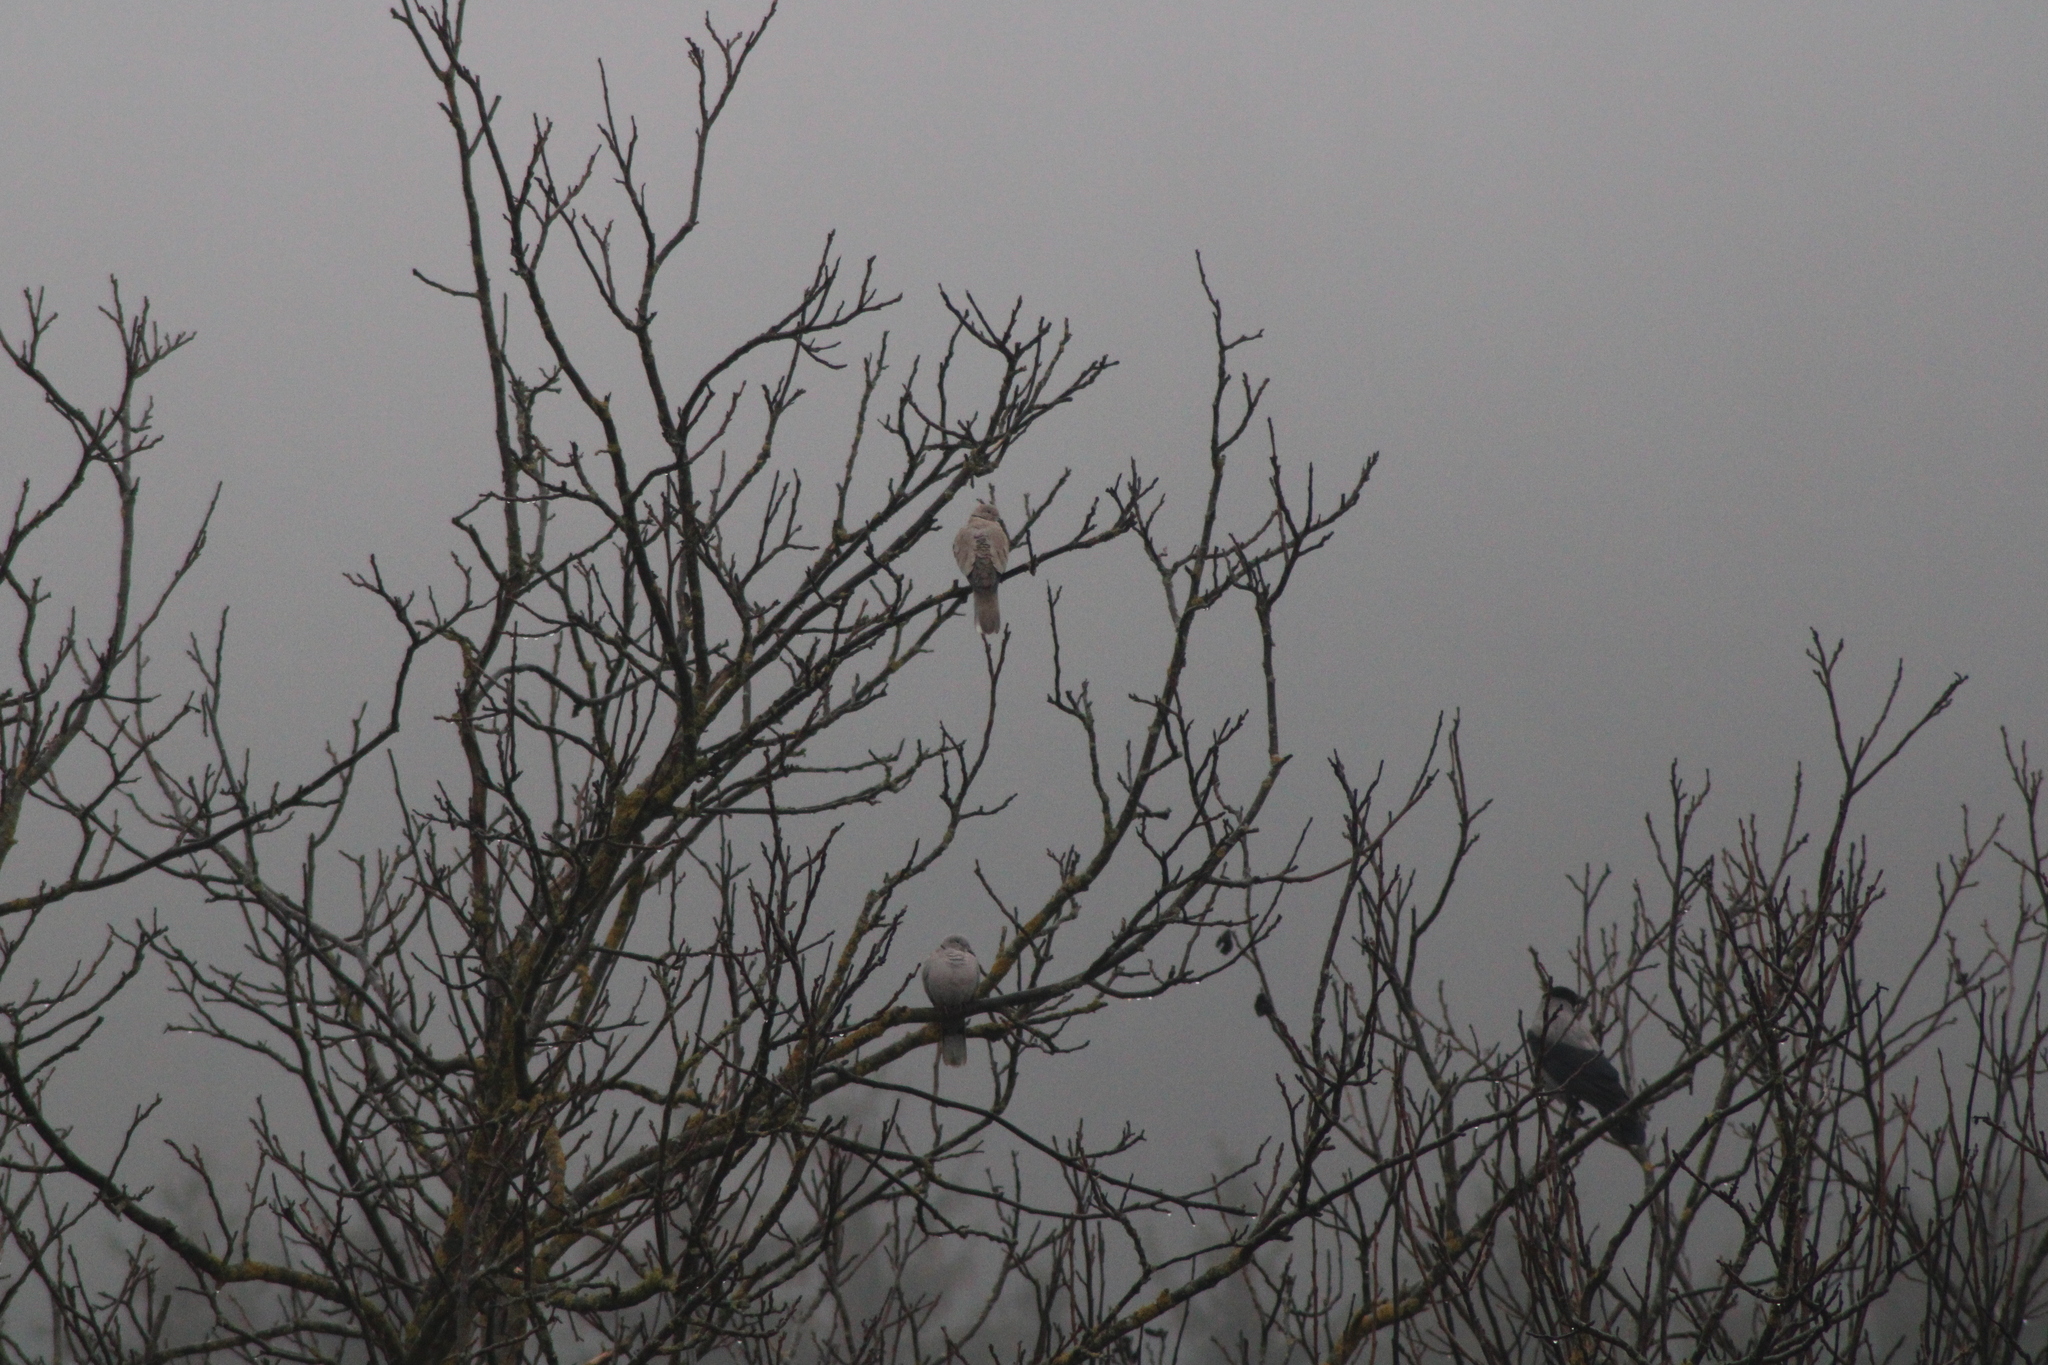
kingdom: Animalia
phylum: Chordata
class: Aves
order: Columbiformes
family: Columbidae
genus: Streptopelia
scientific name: Streptopelia decaocto
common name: Eurasian collared dove
